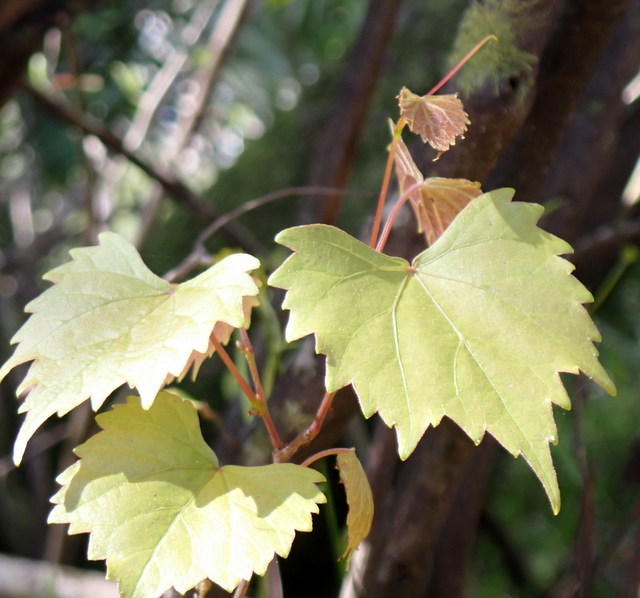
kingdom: Plantae
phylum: Tracheophyta
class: Magnoliopsida
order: Vitales
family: Vitaceae
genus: Vitis
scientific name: Vitis rotundifolia
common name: Muscadine grape
